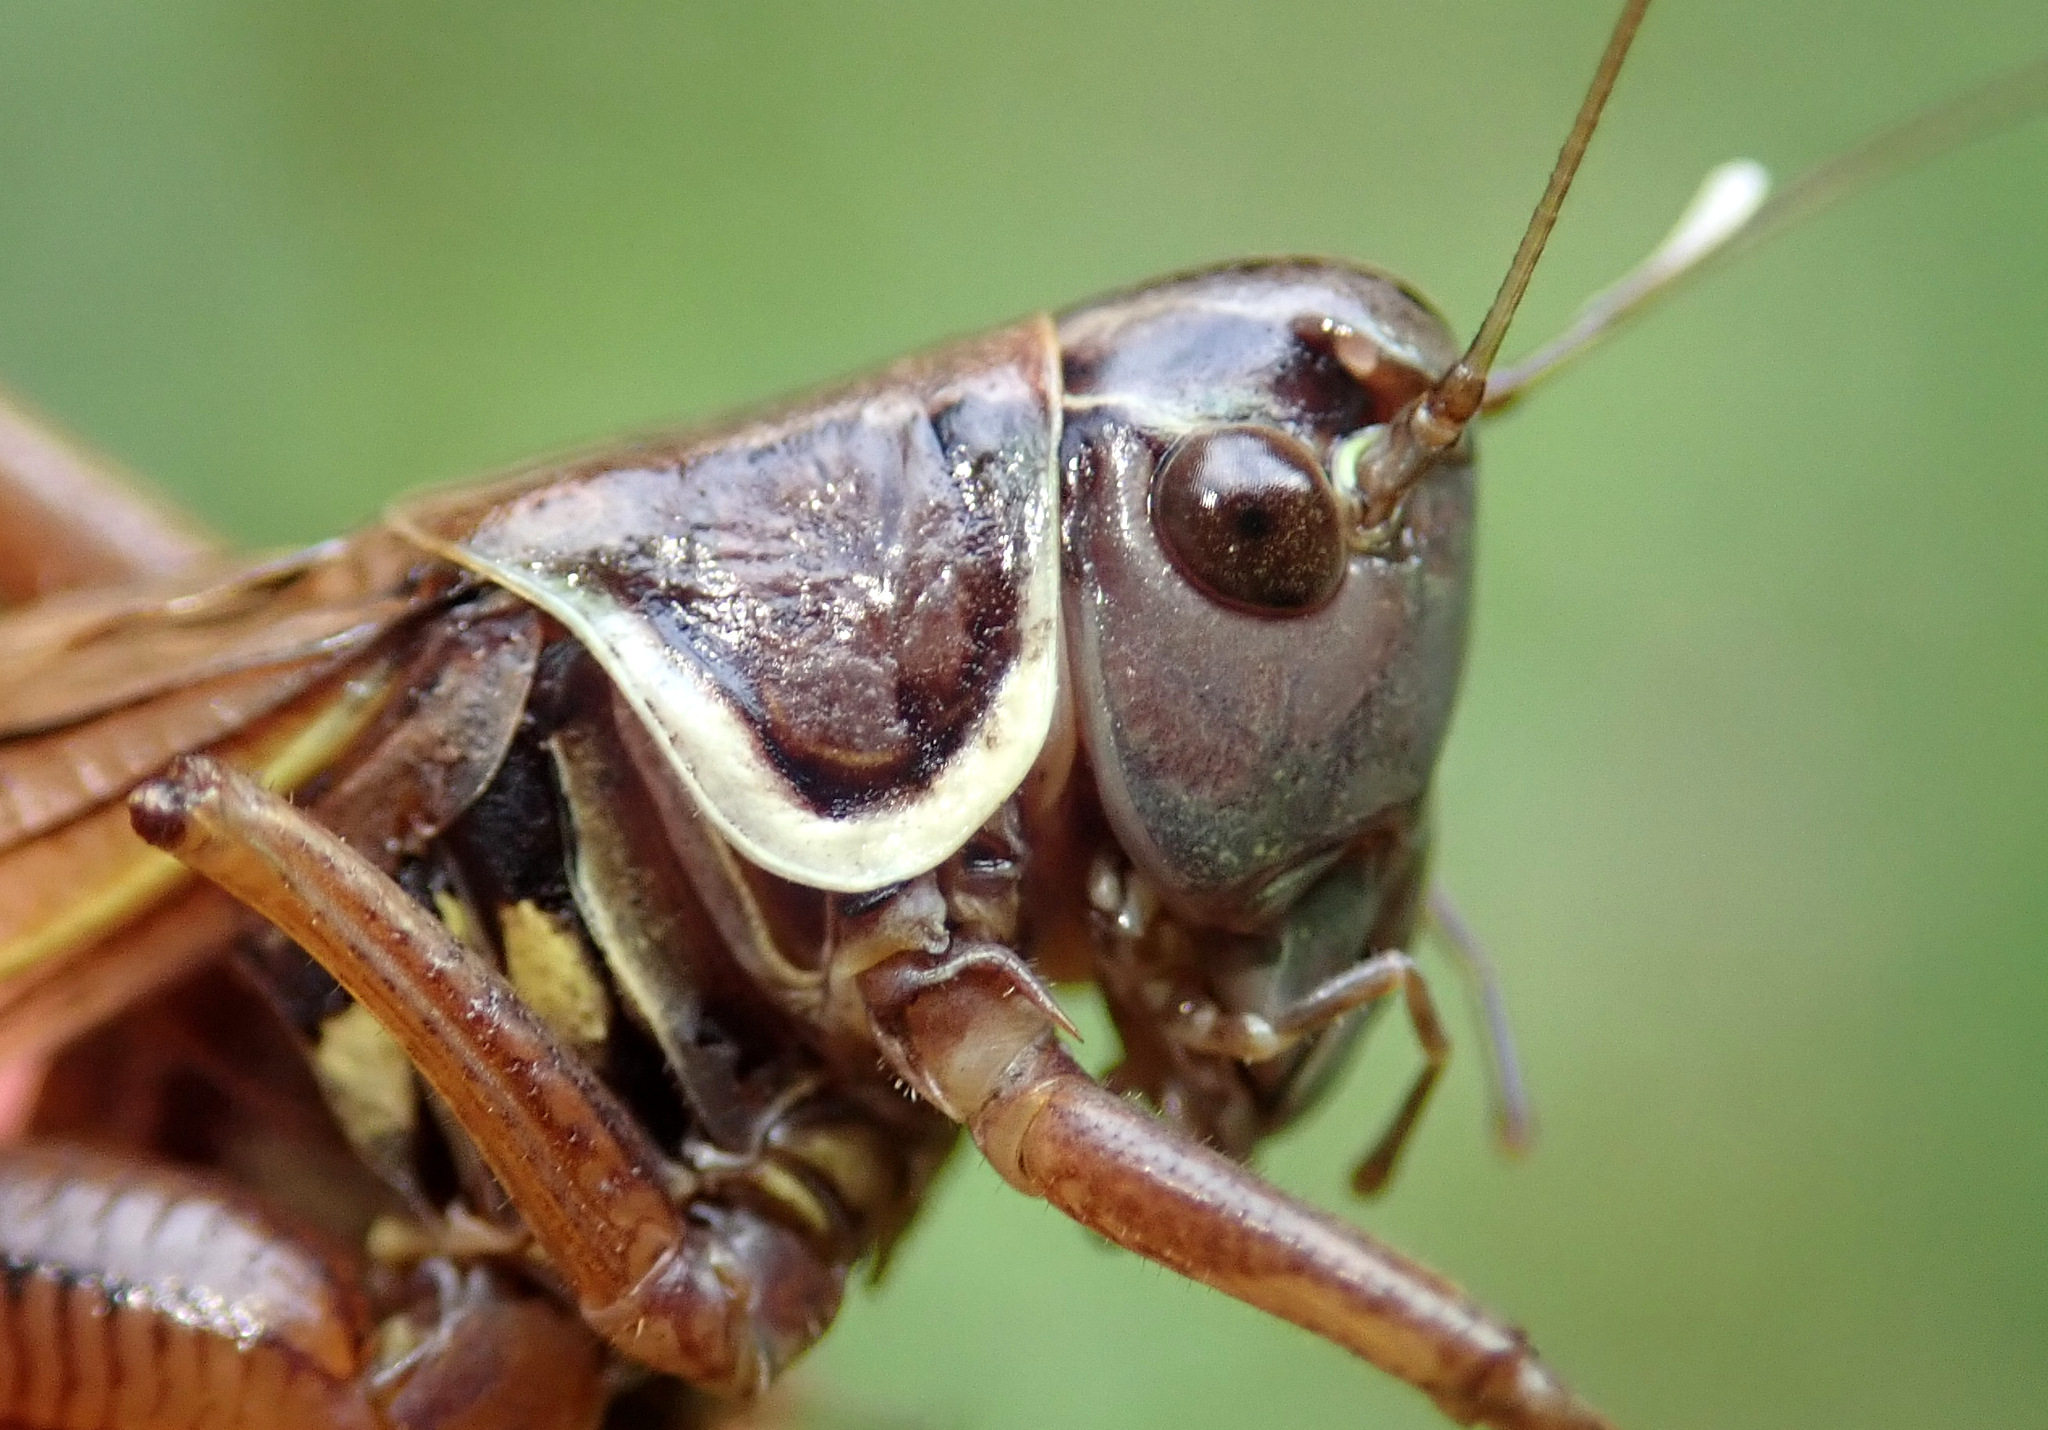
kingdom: Animalia
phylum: Arthropoda
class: Insecta
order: Orthoptera
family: Tettigoniidae
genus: Roeseliana
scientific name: Roeseliana roeselii
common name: Roesel's bush cricket
